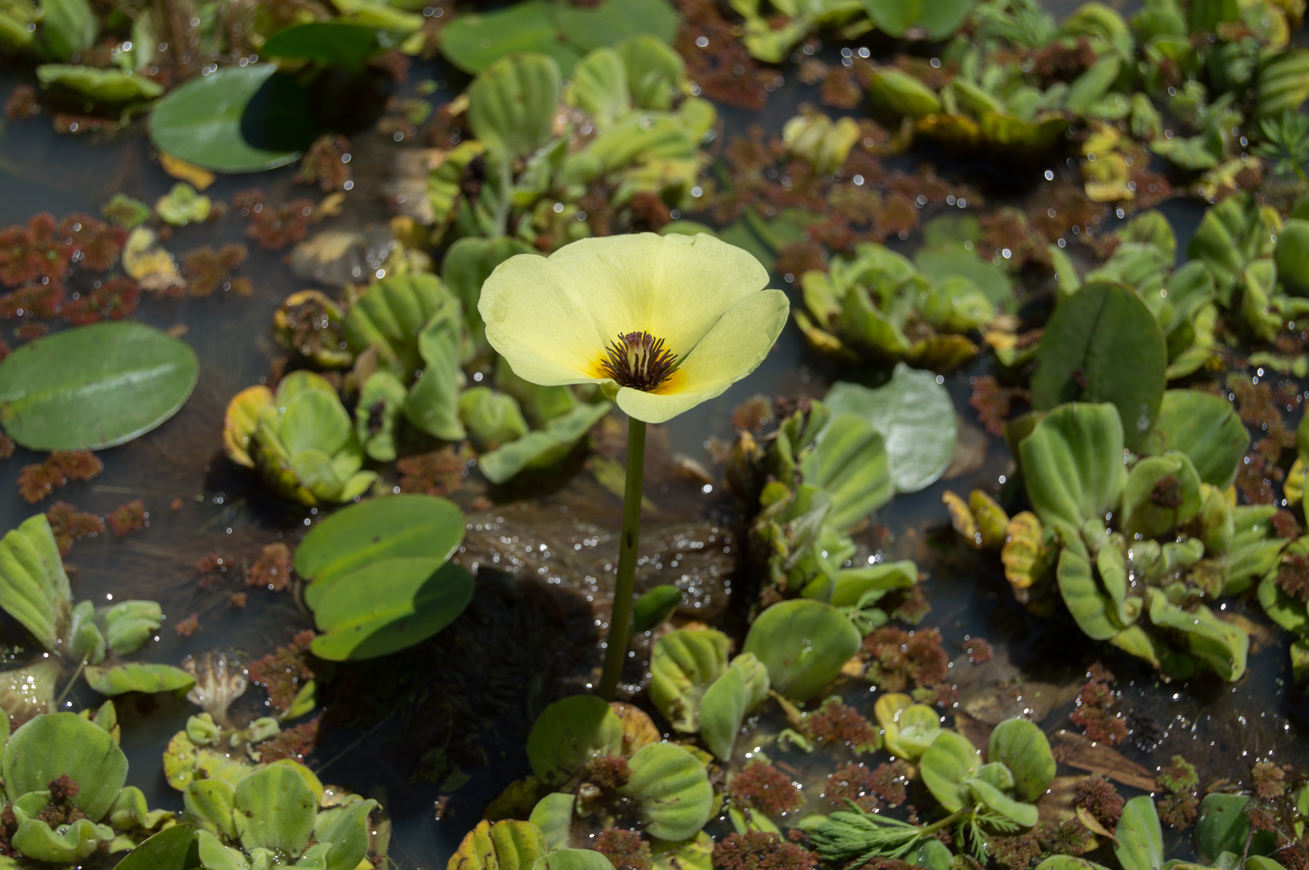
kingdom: Plantae
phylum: Tracheophyta
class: Liliopsida
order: Alismatales
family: Alismataceae
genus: Hydrocleys
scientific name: Hydrocleys nymphoides
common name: Water-poppy
